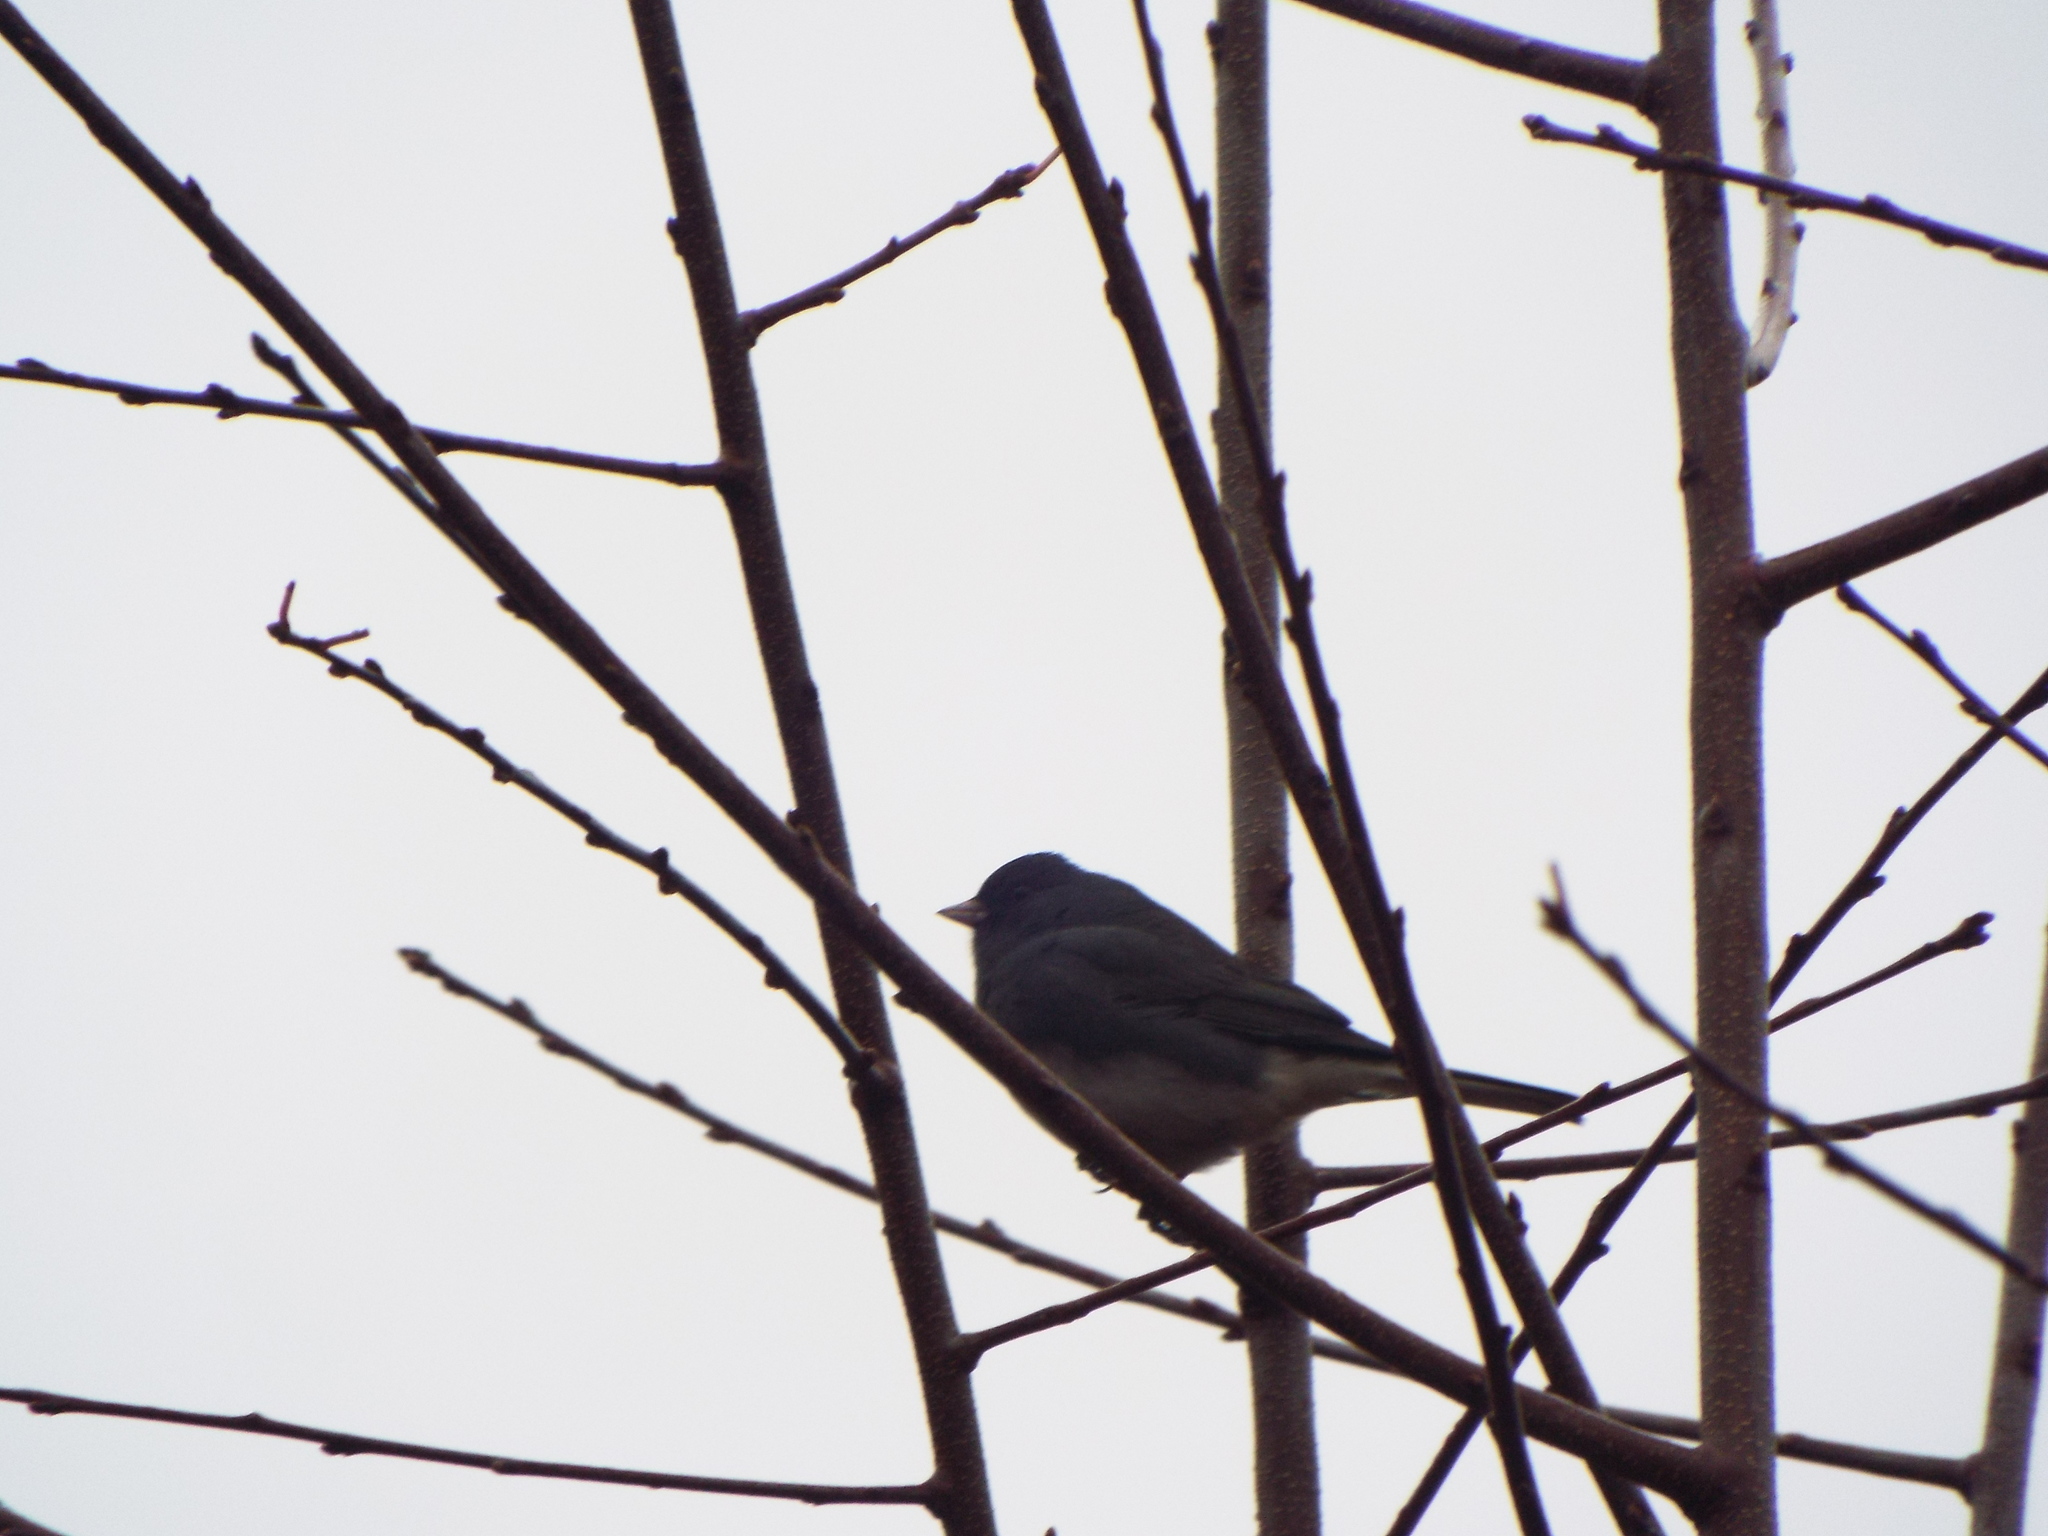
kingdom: Animalia
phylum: Chordata
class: Aves
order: Passeriformes
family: Passerellidae
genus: Junco
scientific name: Junco hyemalis
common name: Dark-eyed junco
